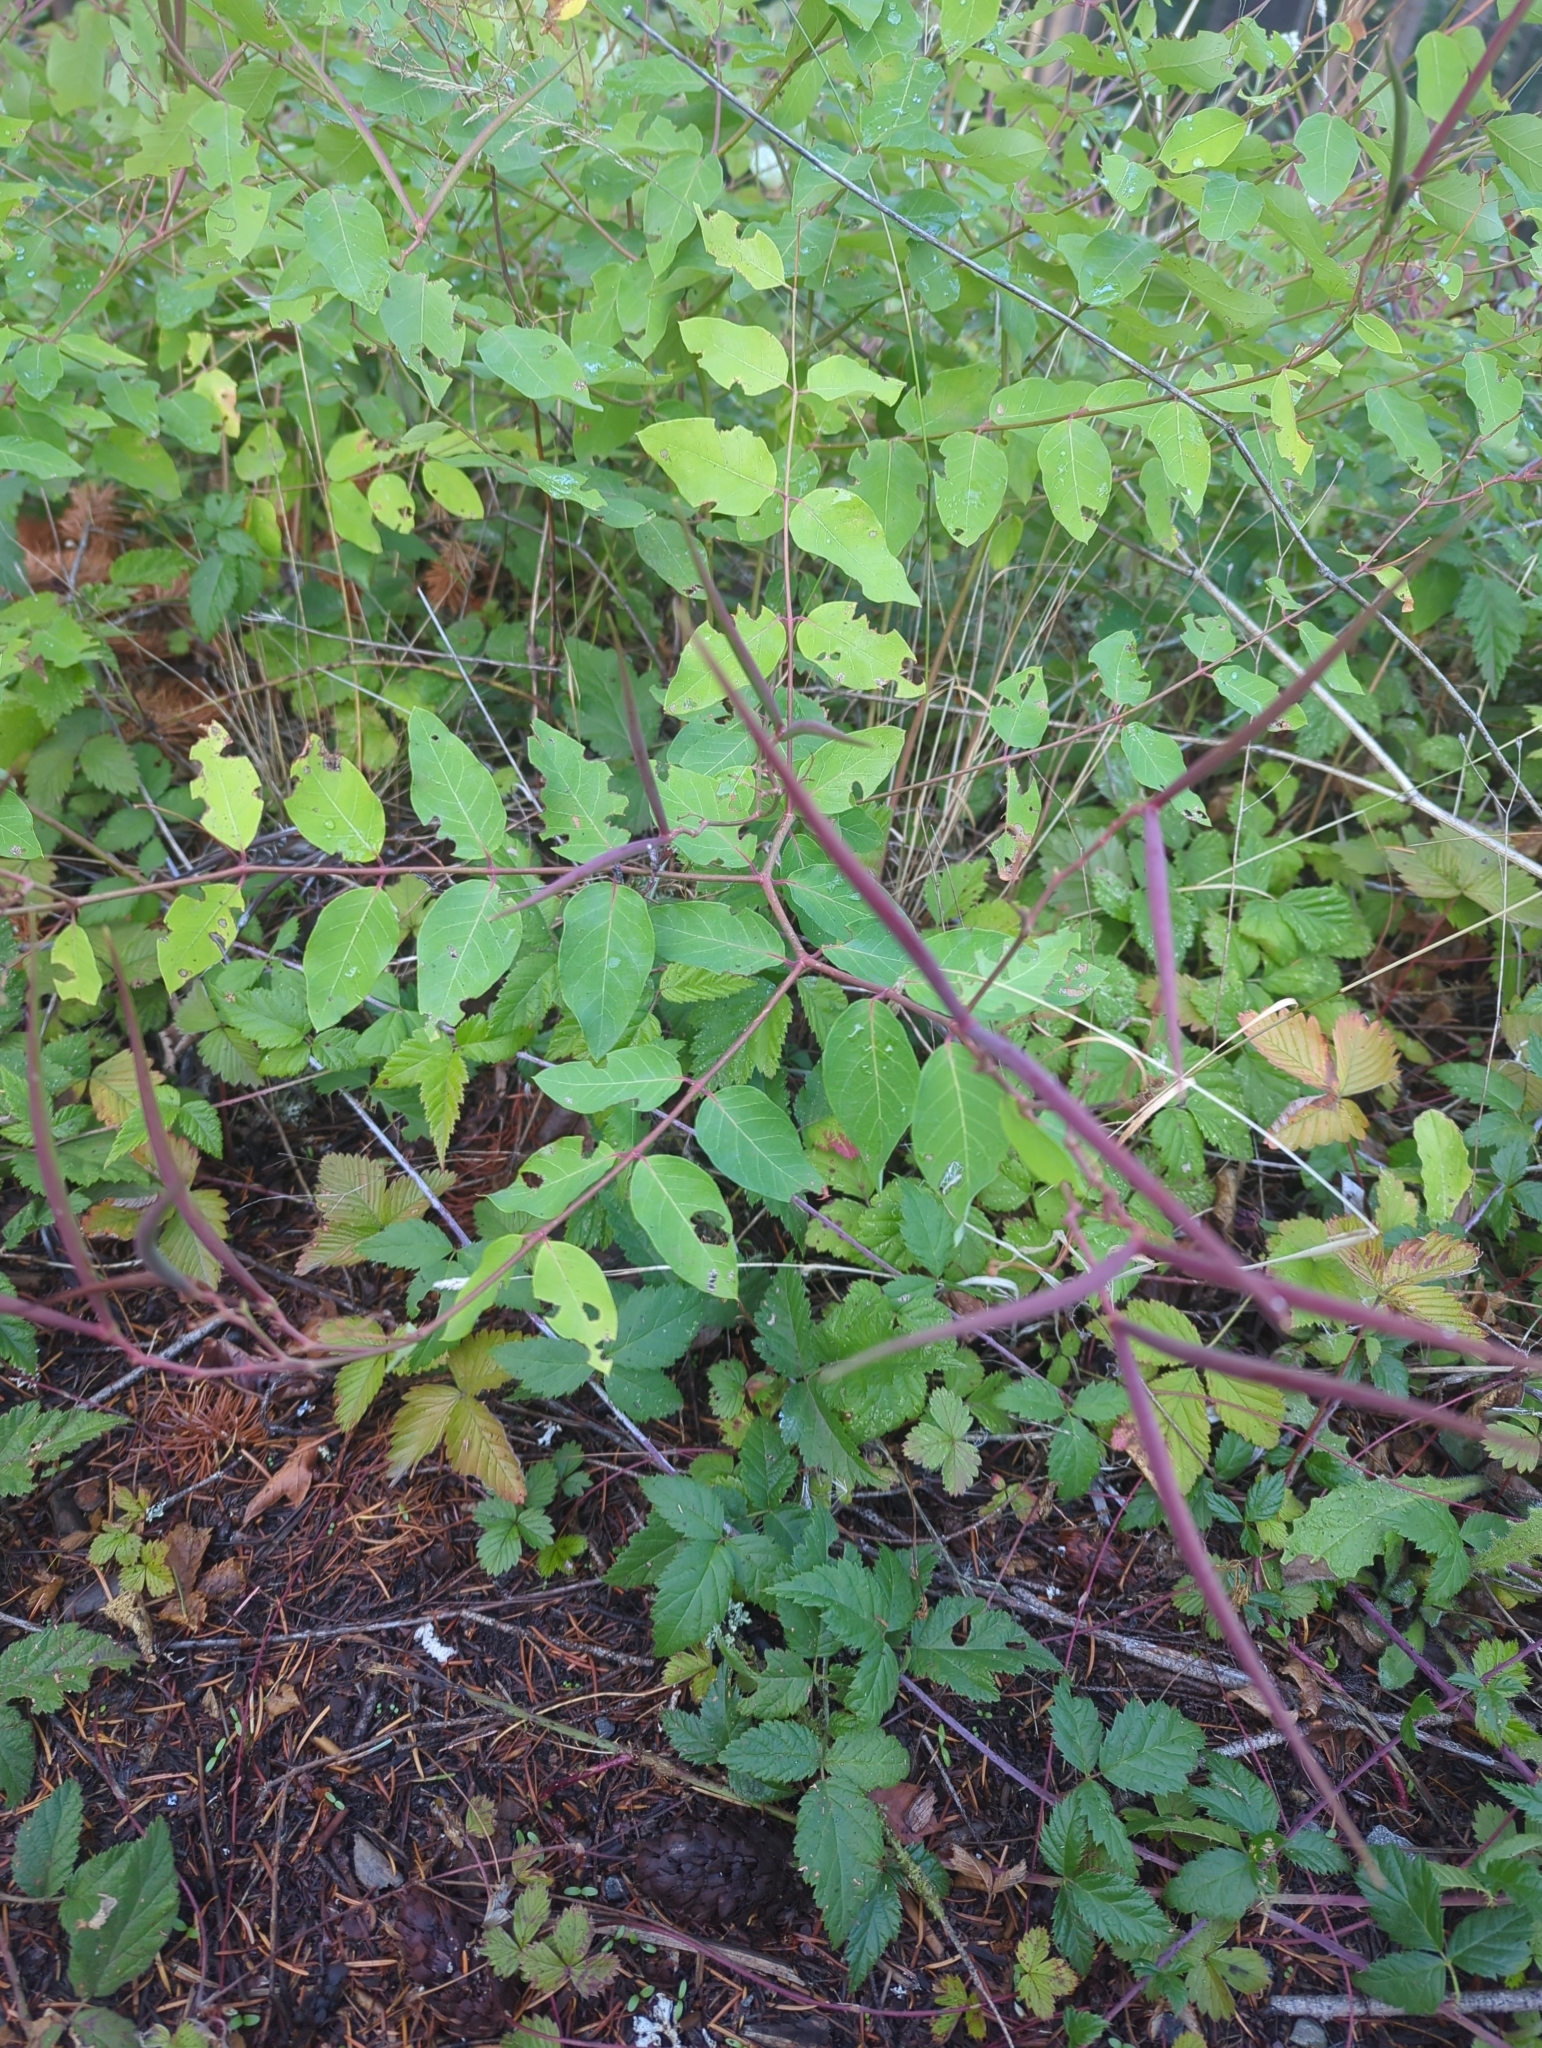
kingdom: Plantae
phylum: Tracheophyta
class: Magnoliopsida
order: Gentianales
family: Apocynaceae
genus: Apocynum
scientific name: Apocynum androsaemifolium
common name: Spreading dogbane
